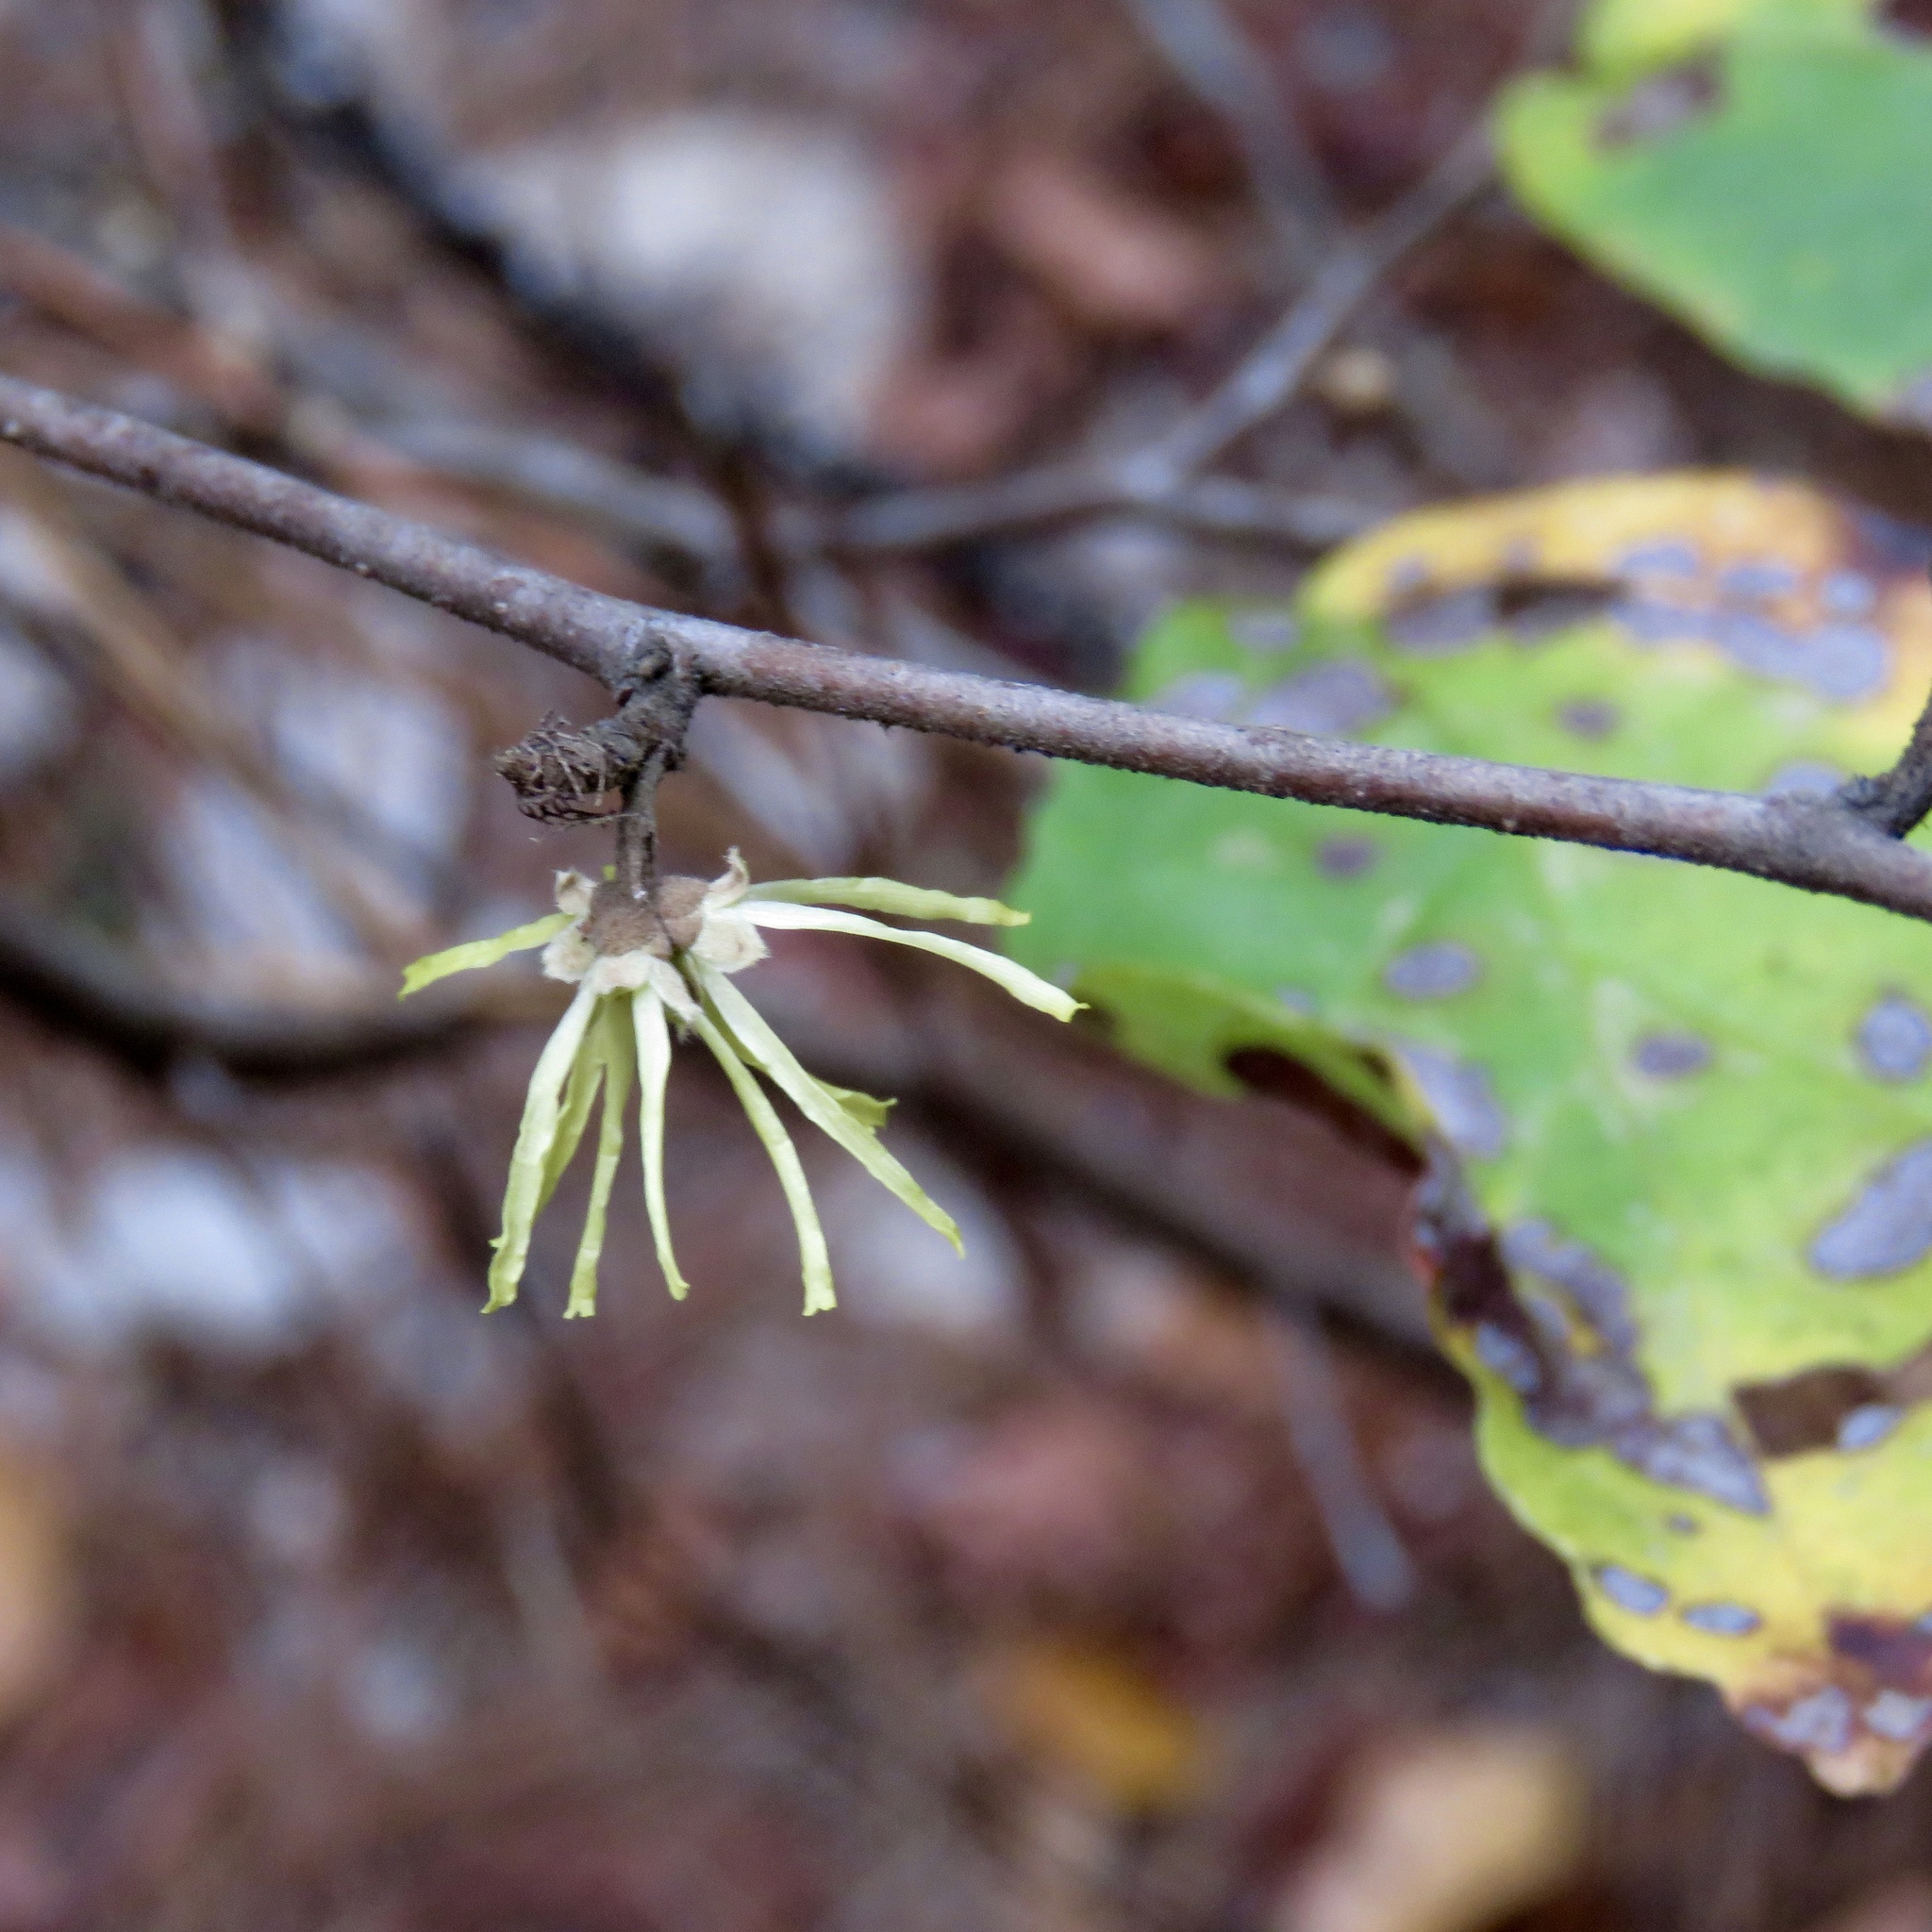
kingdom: Plantae
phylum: Tracheophyta
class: Magnoliopsida
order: Saxifragales
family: Hamamelidaceae
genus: Hamamelis
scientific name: Hamamelis virginiana
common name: Witch-hazel
